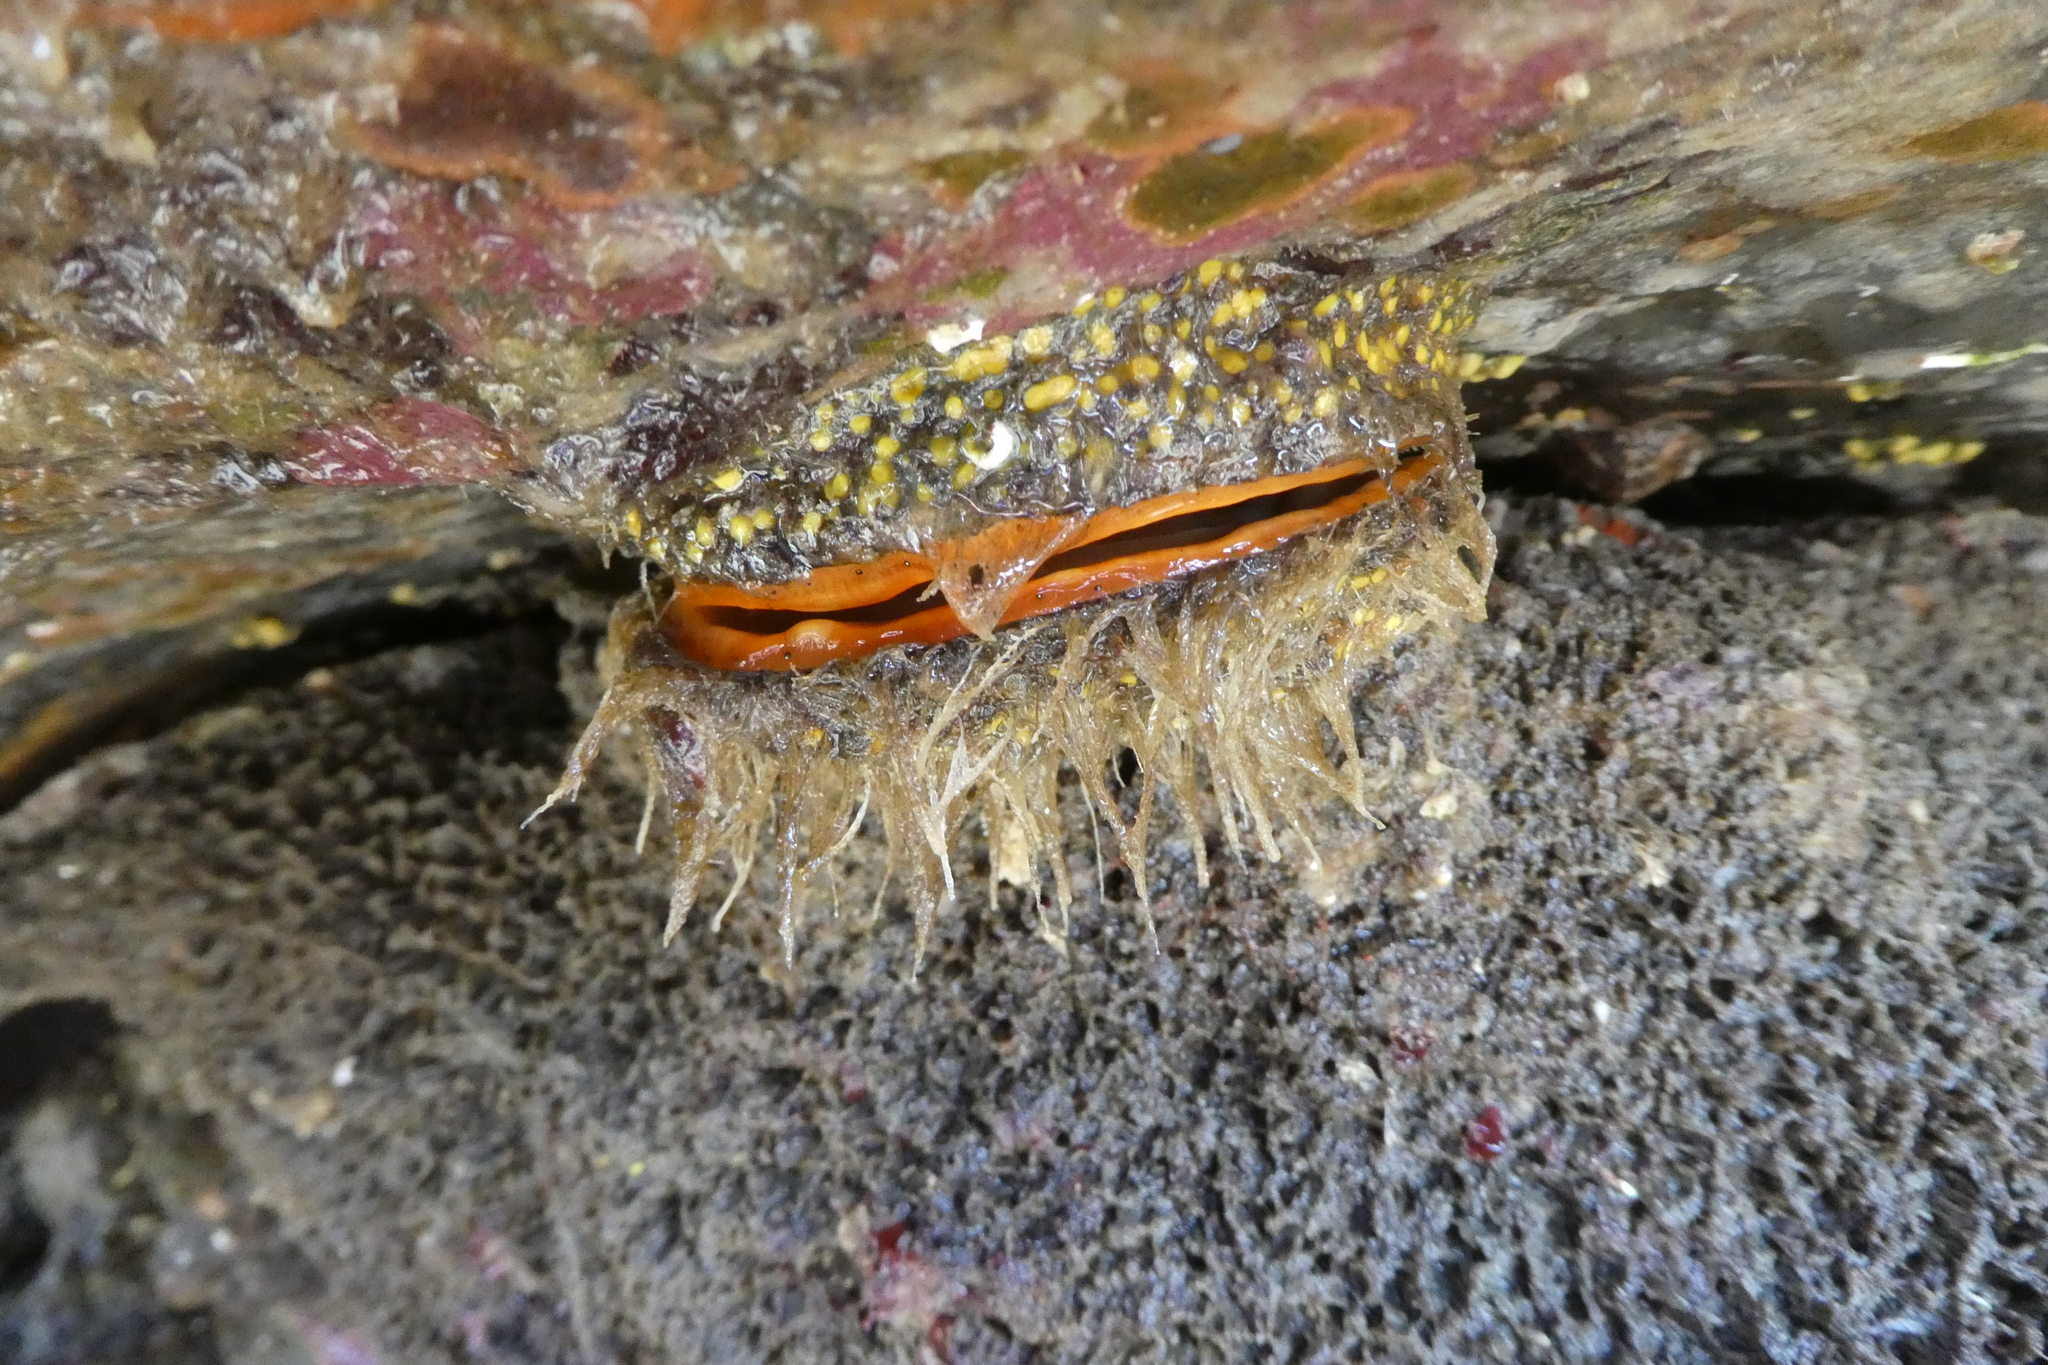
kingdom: Animalia
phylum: Mollusca
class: Bivalvia
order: Pectinida
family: Pectinidae
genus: Crassadoma
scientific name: Crassadoma gigantea
